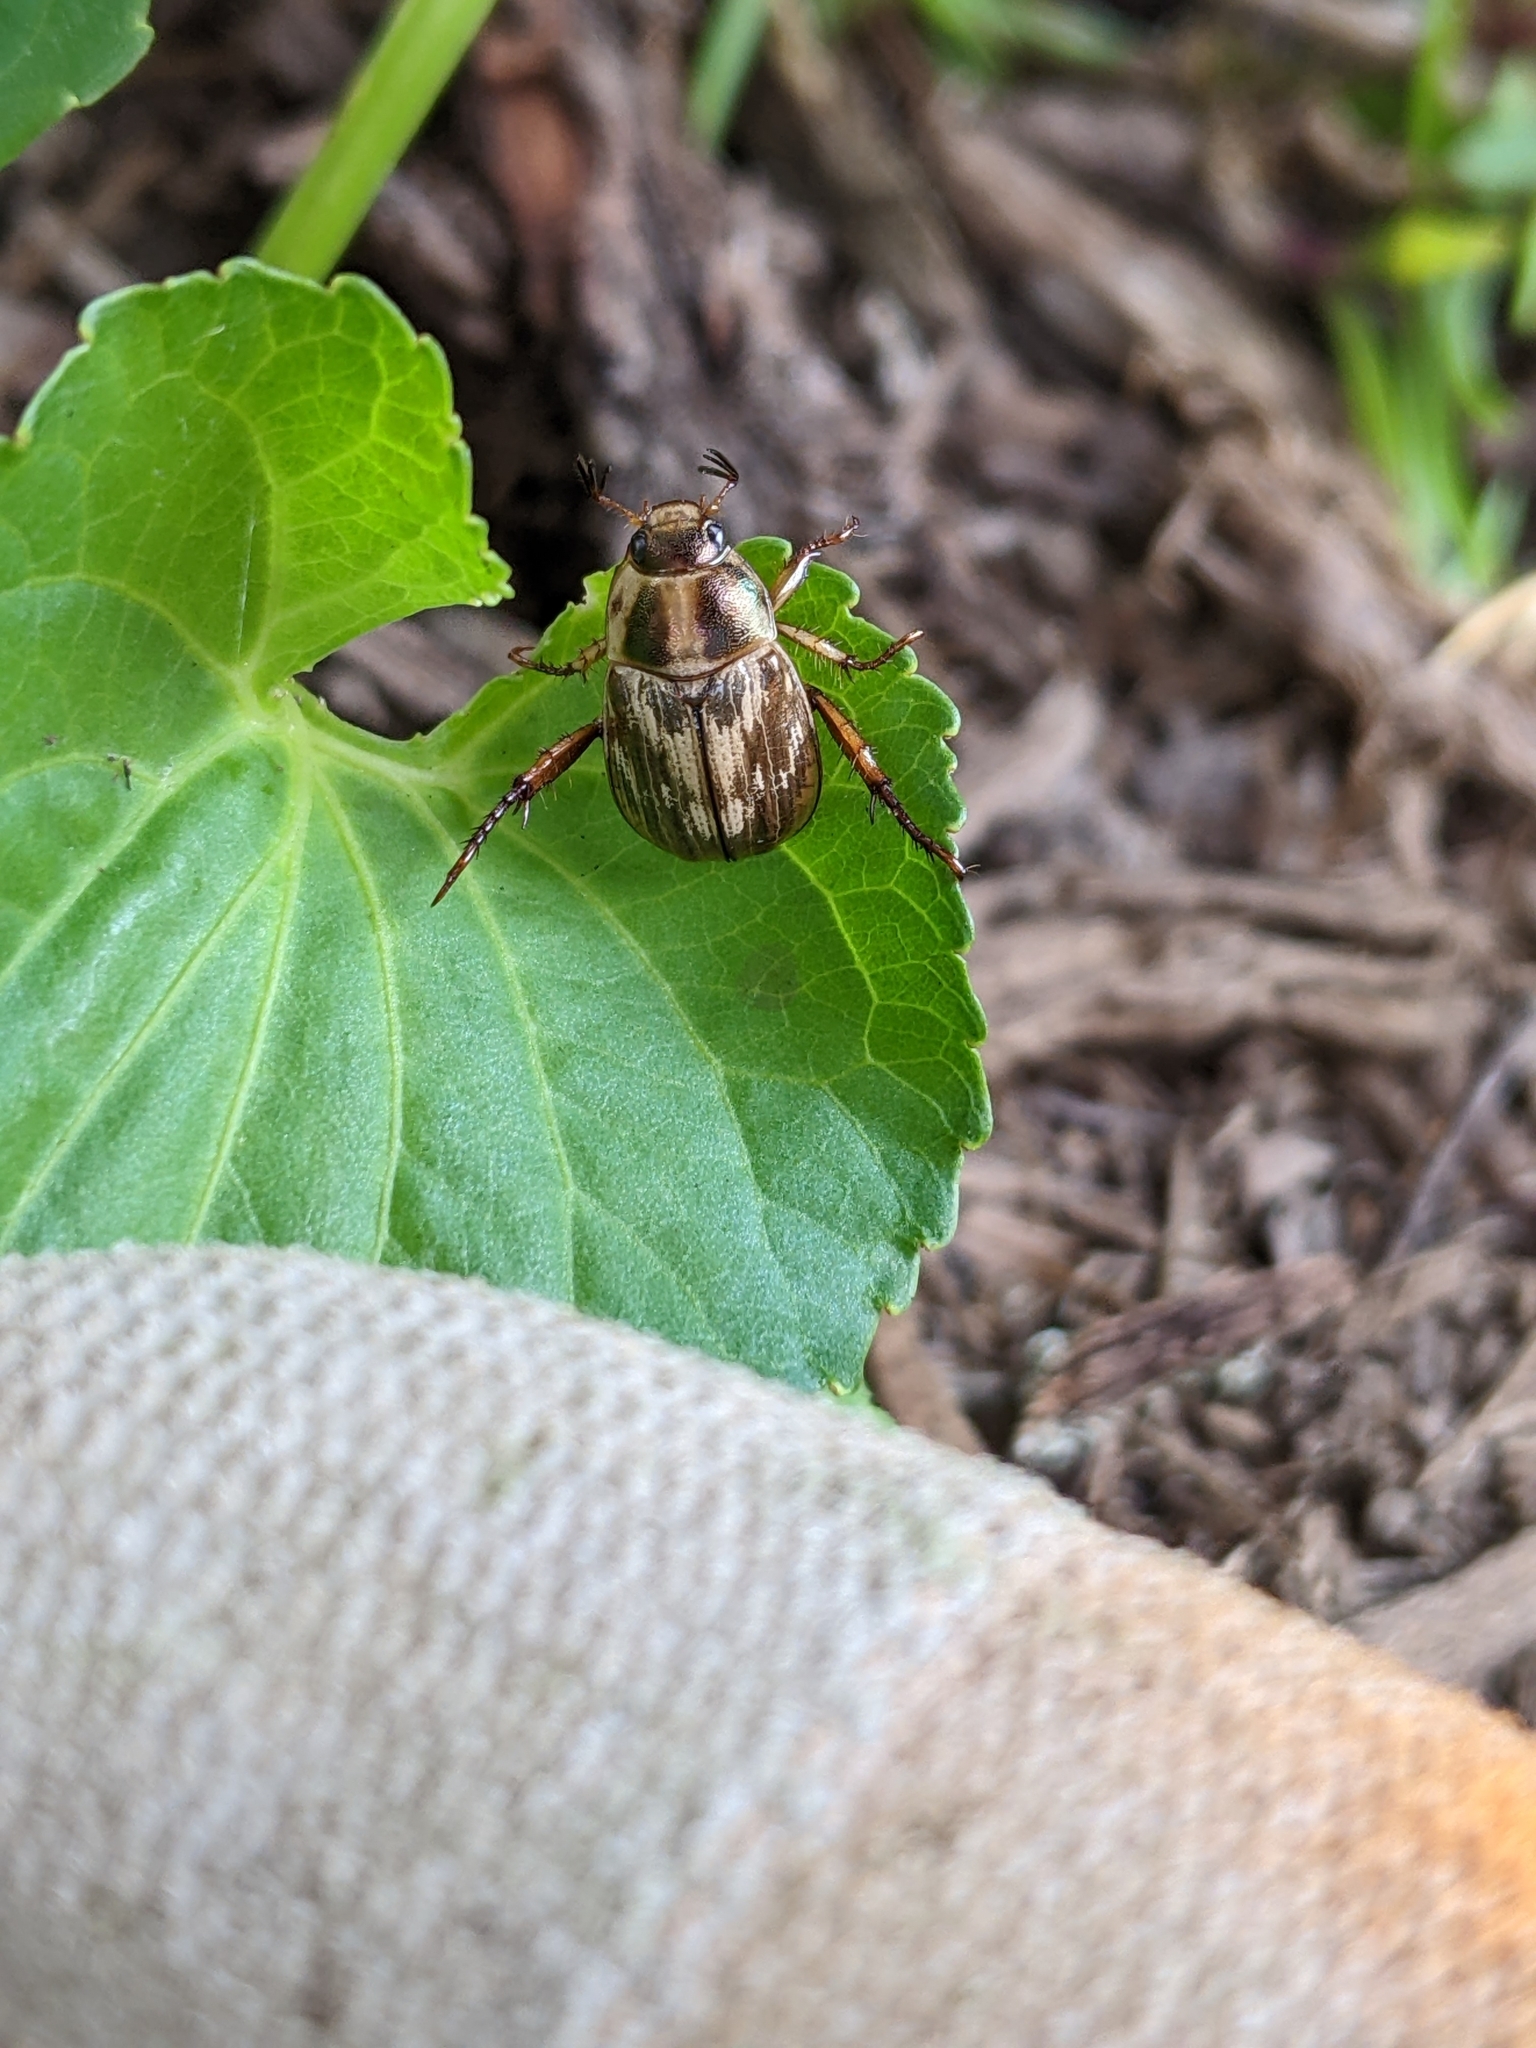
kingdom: Animalia
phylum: Arthropoda
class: Insecta
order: Coleoptera
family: Scarabaeidae
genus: Exomala
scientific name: Exomala orientalis
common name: Oriental beetle
